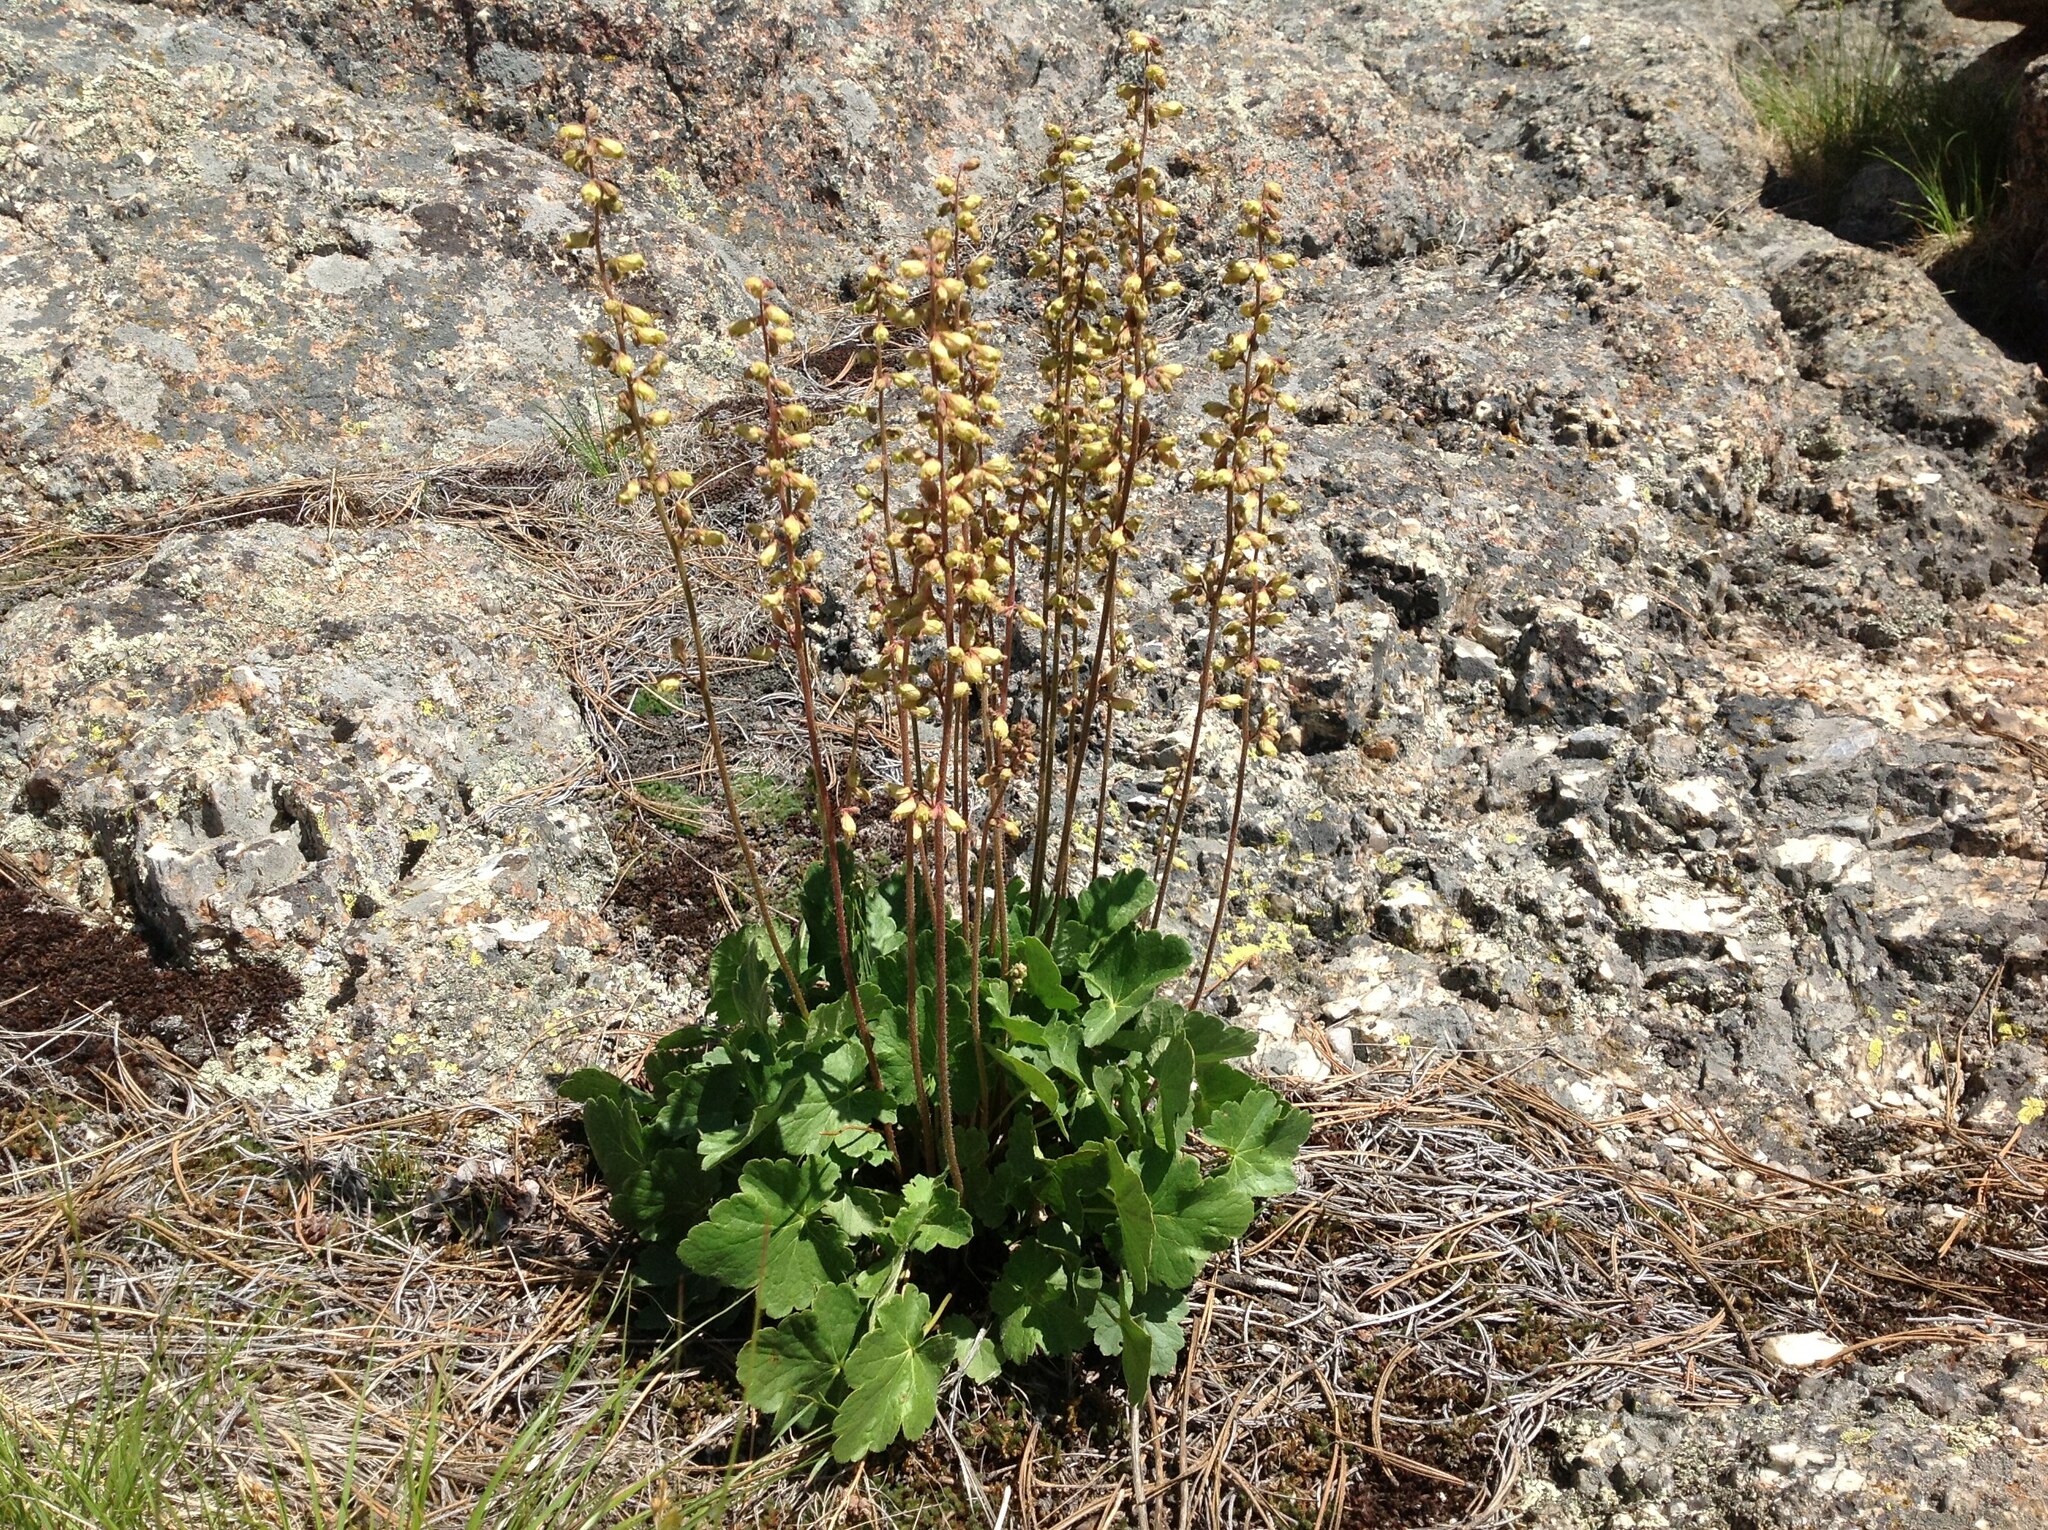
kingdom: Plantae
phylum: Tracheophyta
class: Magnoliopsida
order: Saxifragales
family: Saxifragaceae
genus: Heuchera
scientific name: Heuchera richardsonii
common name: Richardson's alumroot
